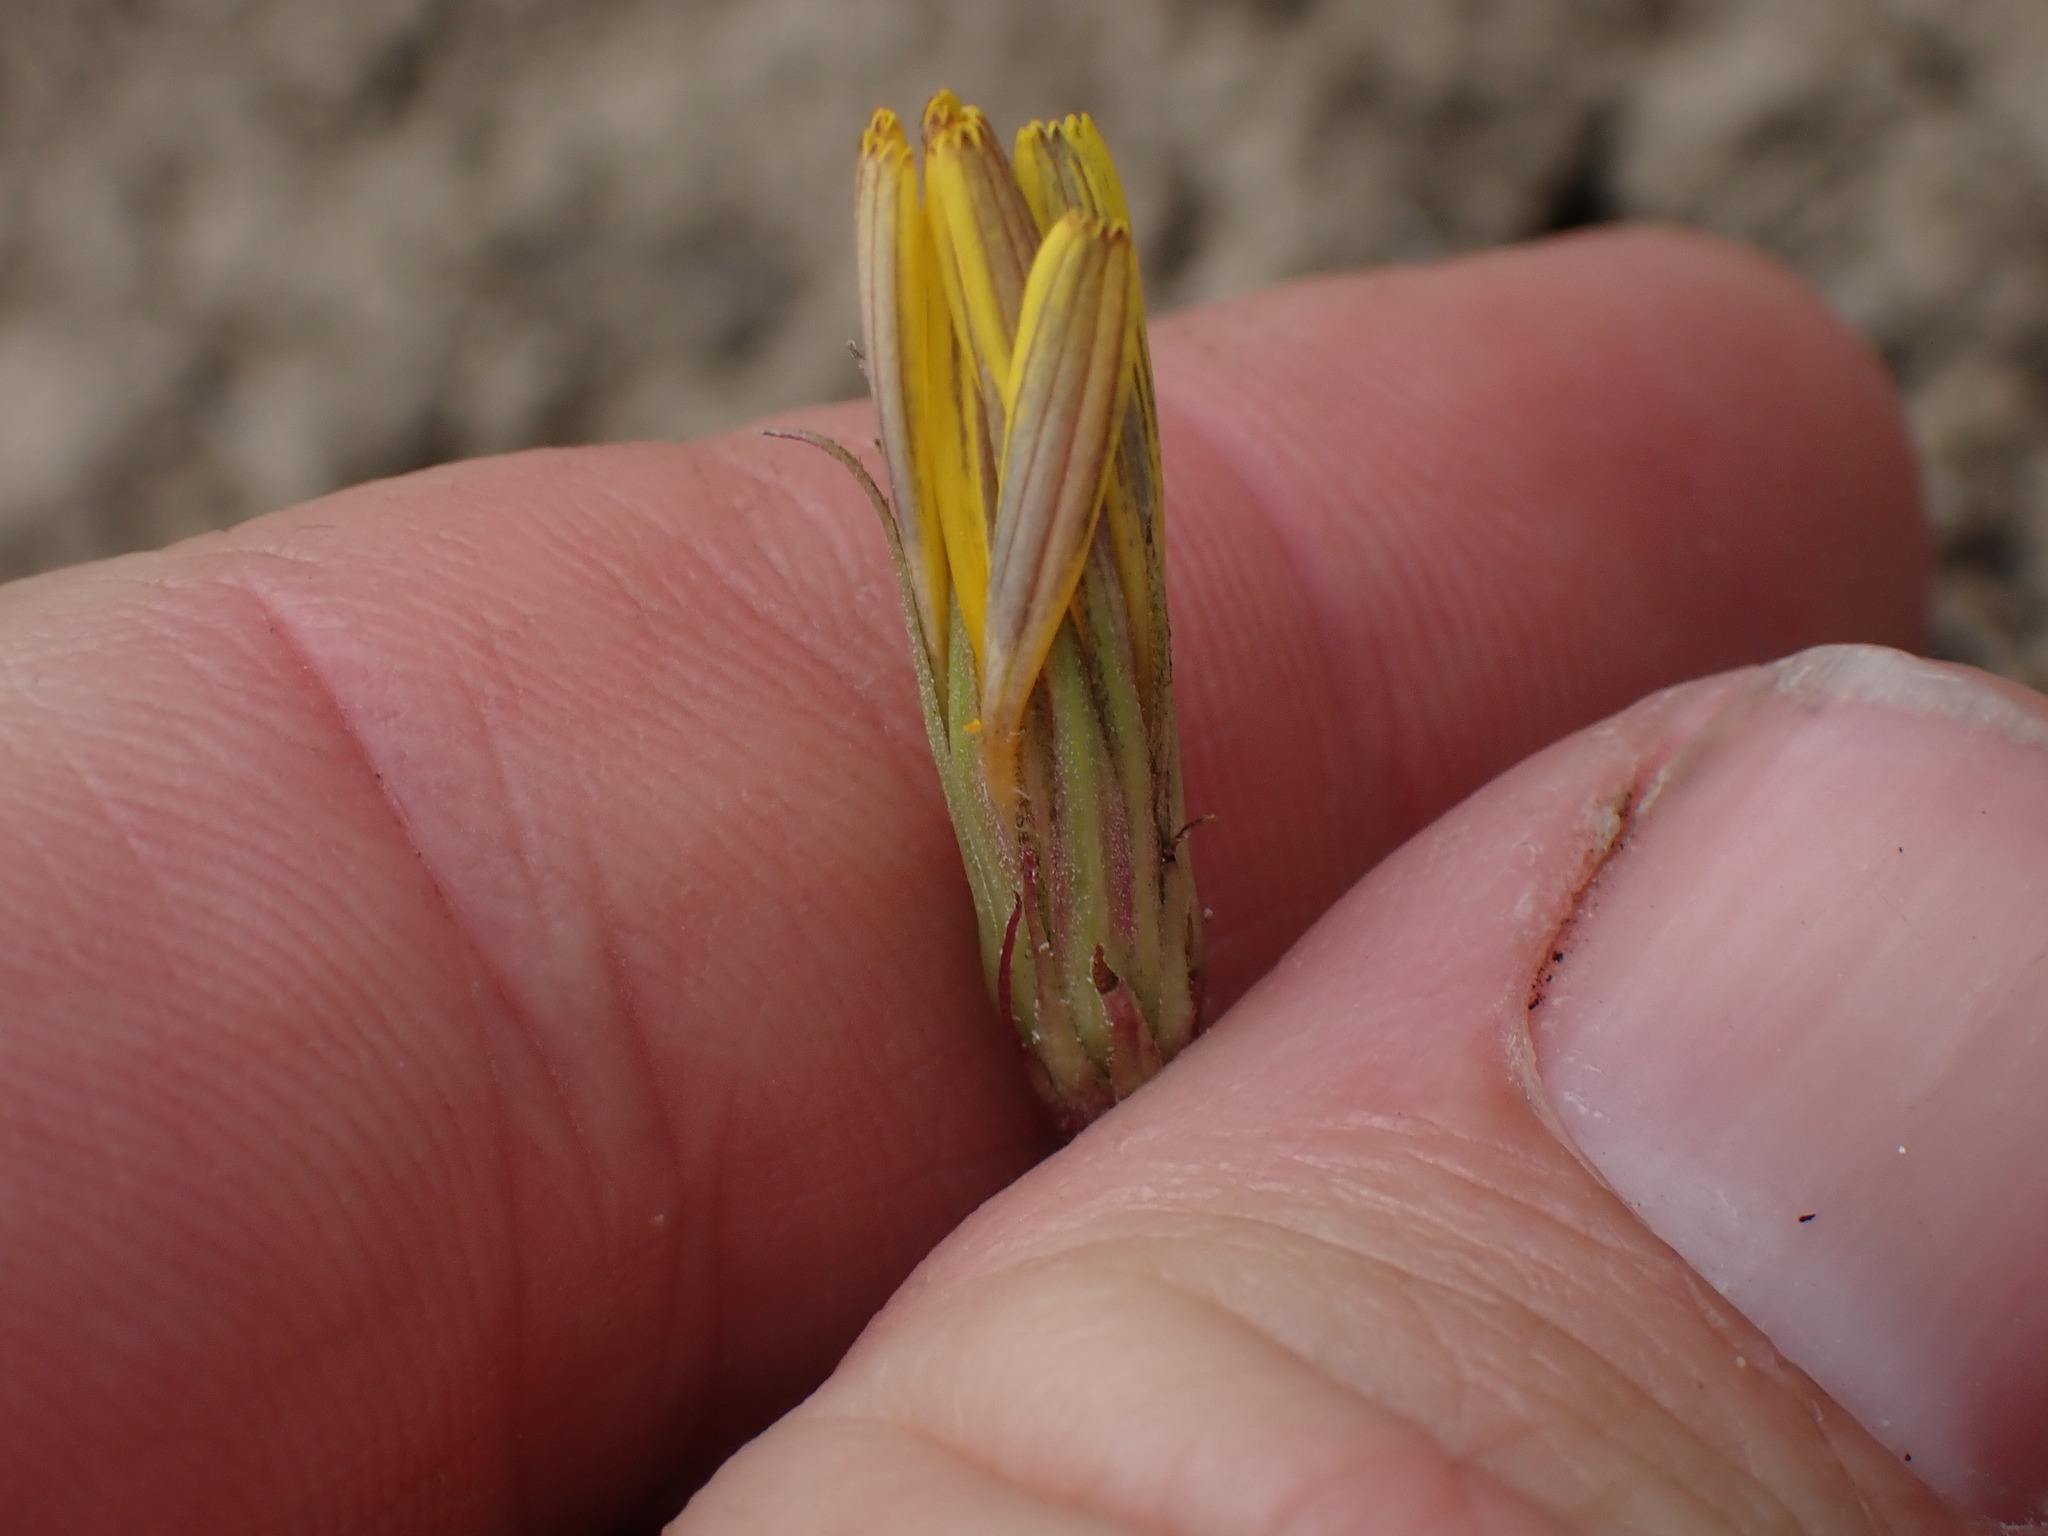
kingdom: Plantae
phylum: Tracheophyta
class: Magnoliopsida
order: Asterales
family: Asteraceae
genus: Microseris
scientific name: Microseris troximoides
